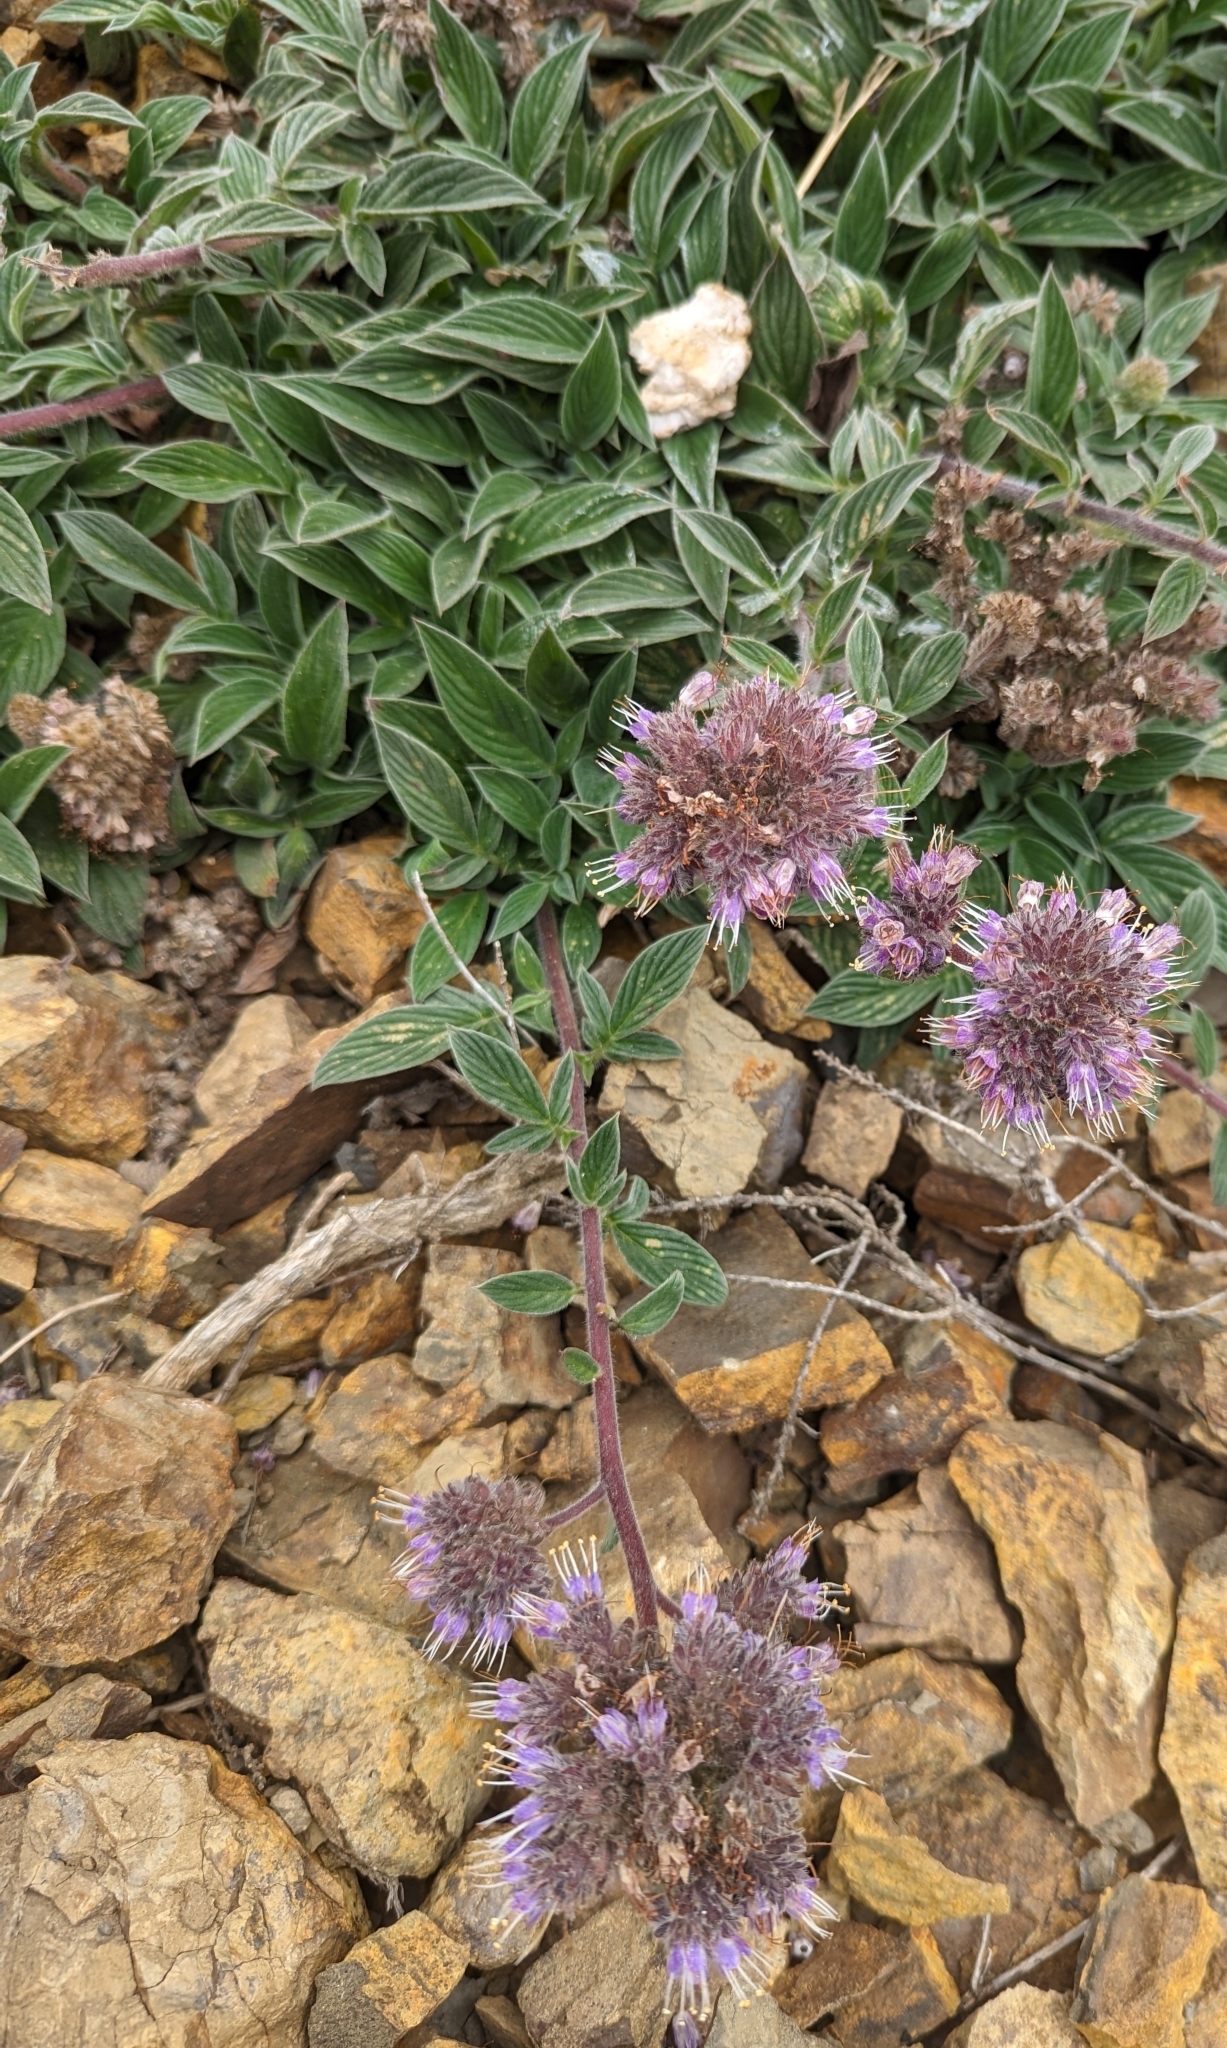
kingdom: Plantae
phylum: Tracheophyta
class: Magnoliopsida
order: Boraginales
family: Hydrophyllaceae
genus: Phacelia
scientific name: Phacelia californica
